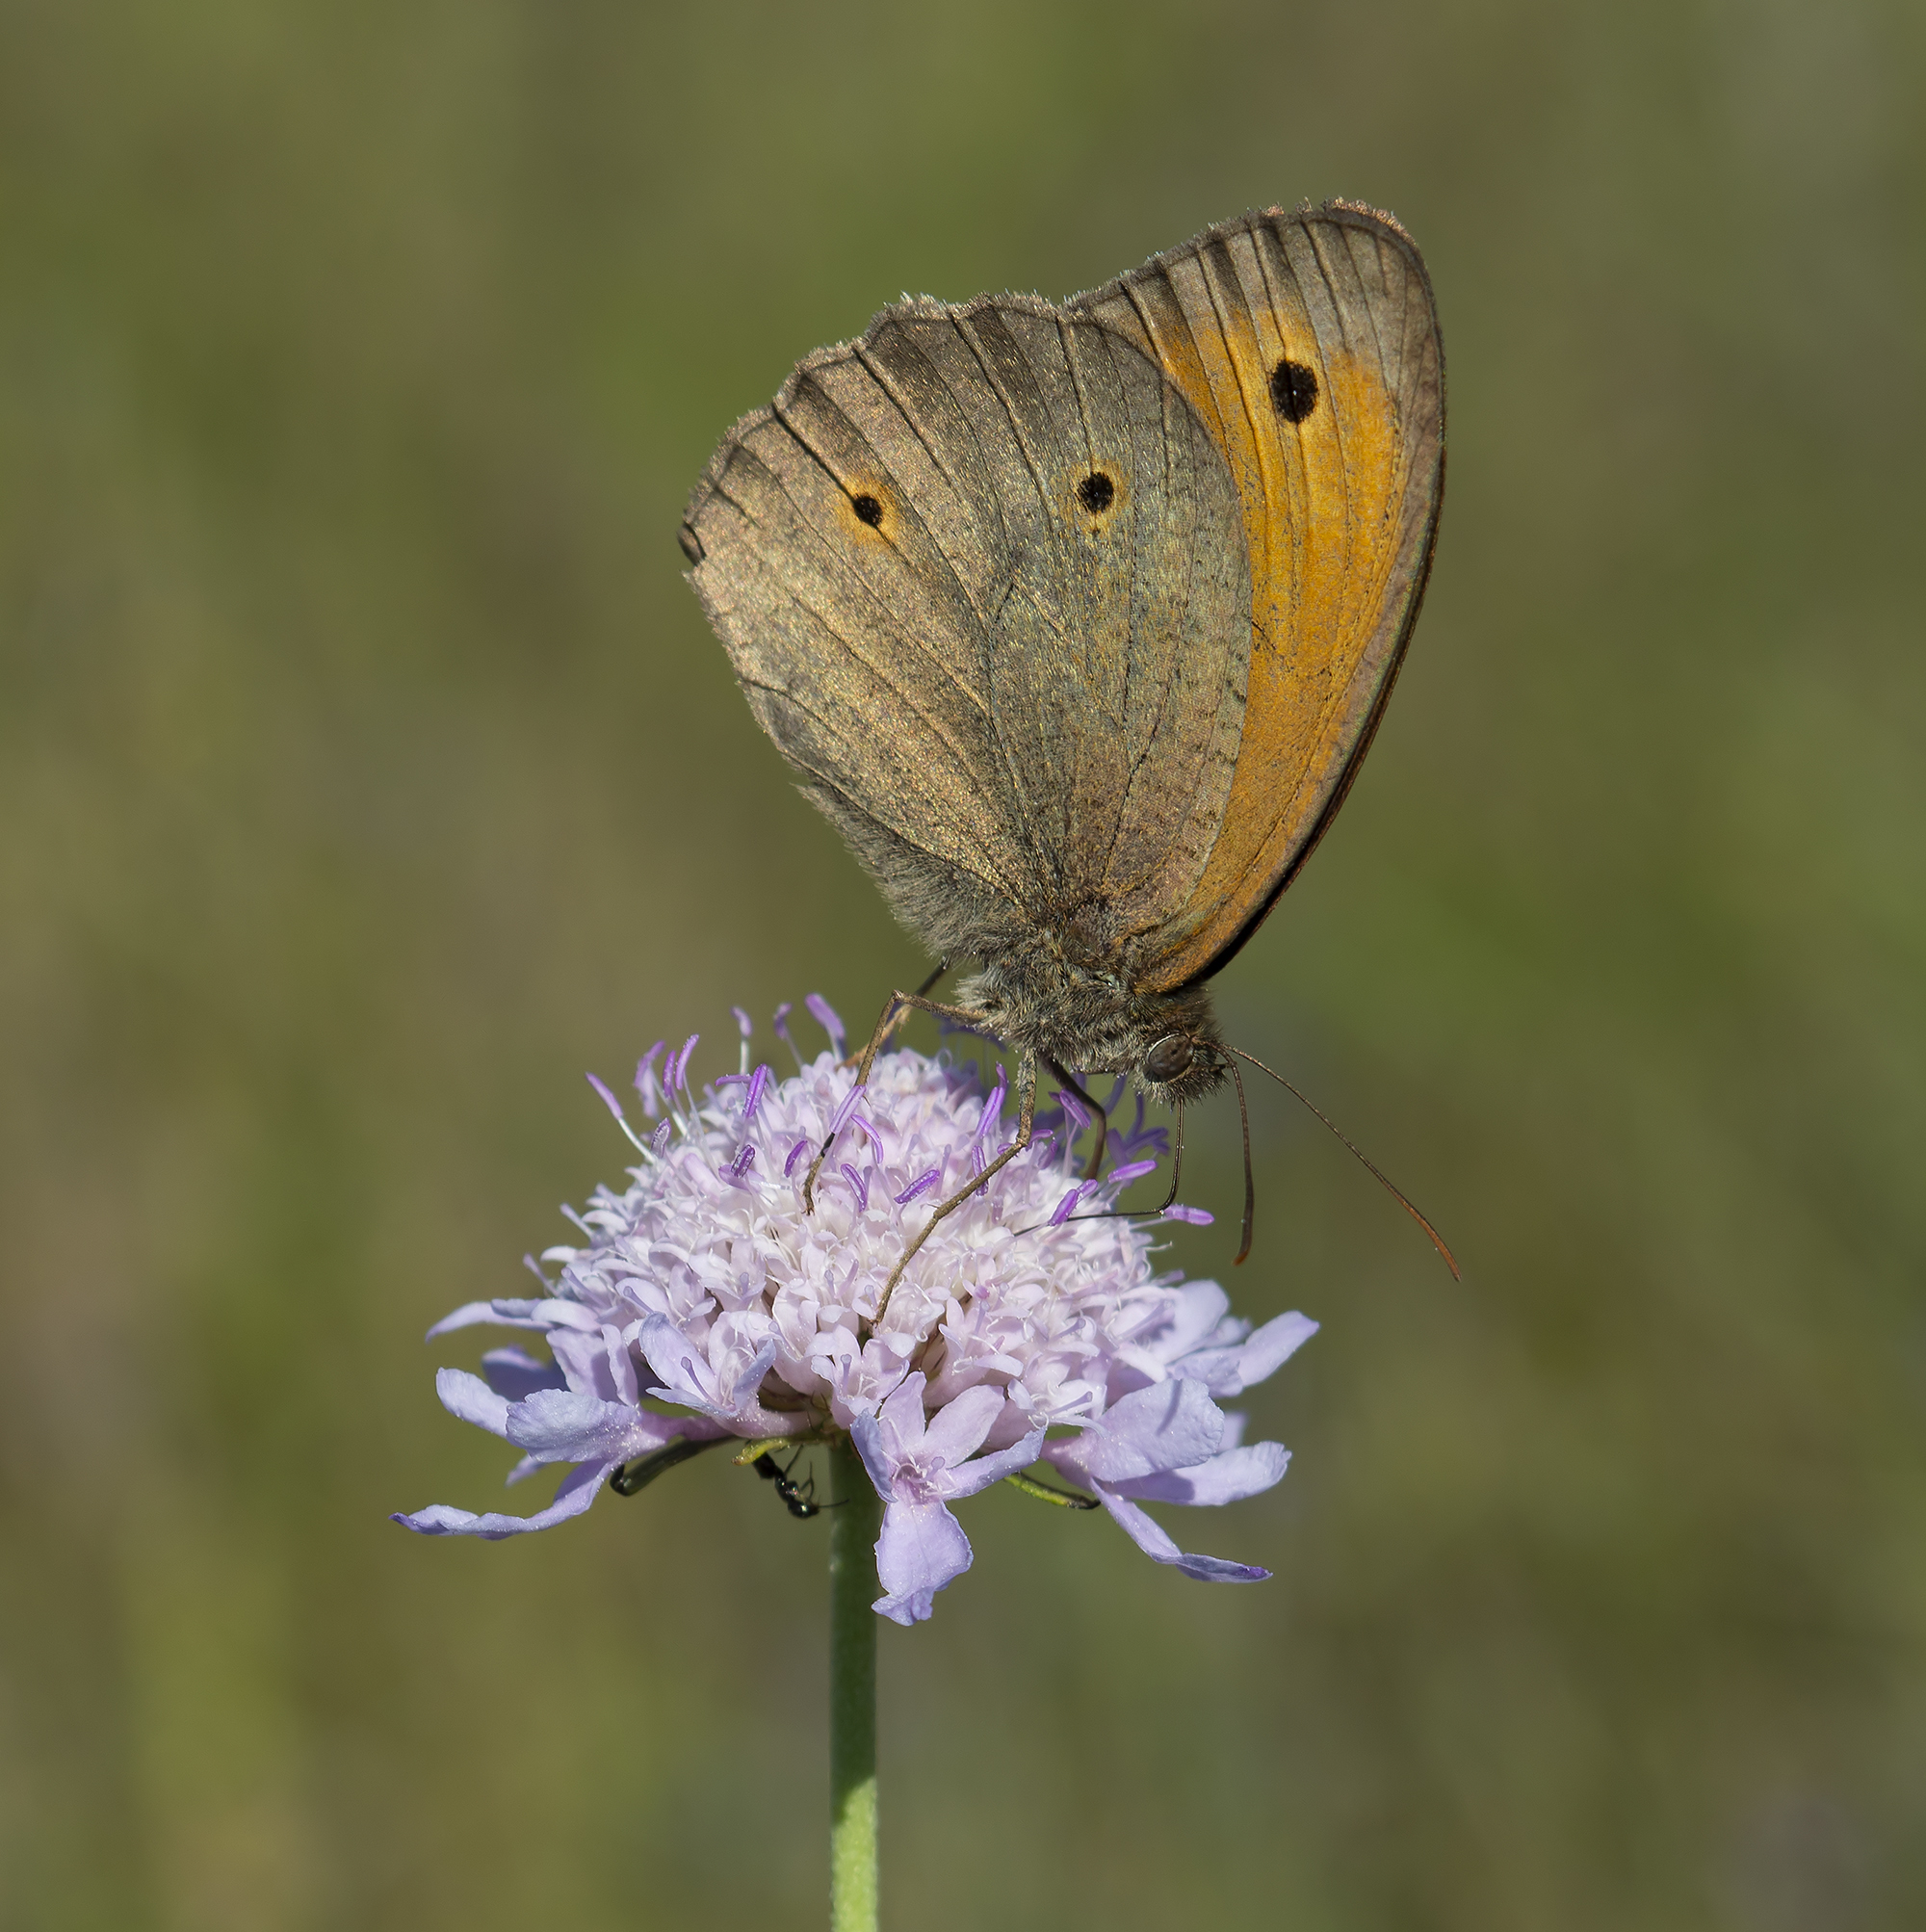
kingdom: Animalia
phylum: Arthropoda
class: Insecta
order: Lepidoptera
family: Nymphalidae
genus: Maniola
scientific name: Maniola jurtina
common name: Meadow brown
